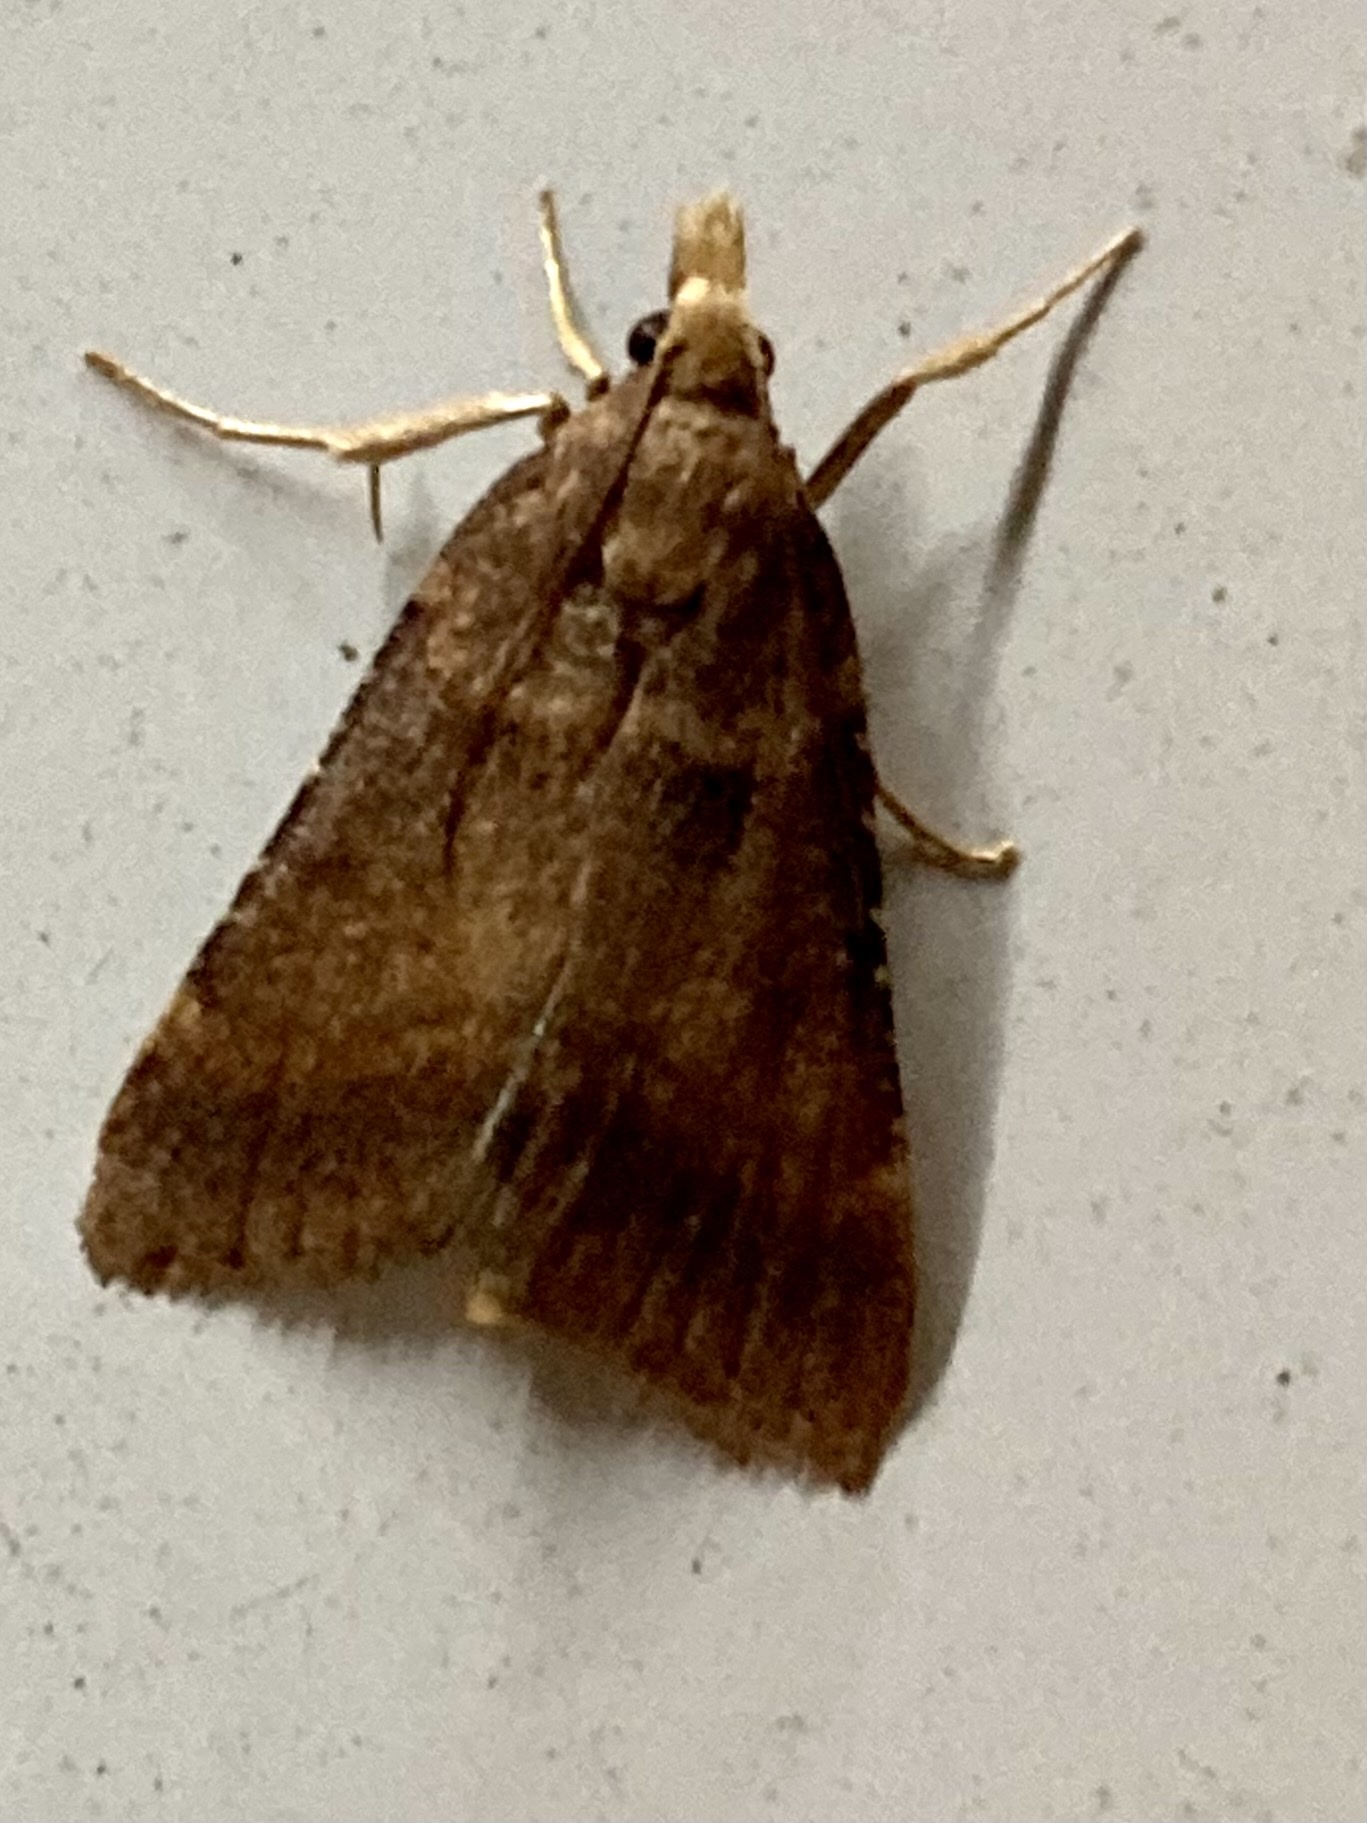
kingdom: Animalia
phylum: Arthropoda
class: Insecta
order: Lepidoptera
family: Pyralidae
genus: Stemmatophora
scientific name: Stemmatophora brunnealis
